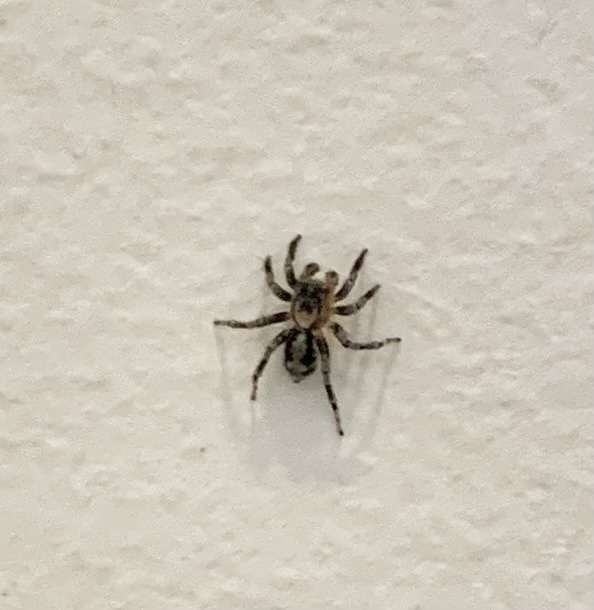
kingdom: Animalia
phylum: Arthropoda
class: Arachnida
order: Araneae
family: Salticidae
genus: Naphrys
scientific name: Naphrys pulex
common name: Flea jumping spider
